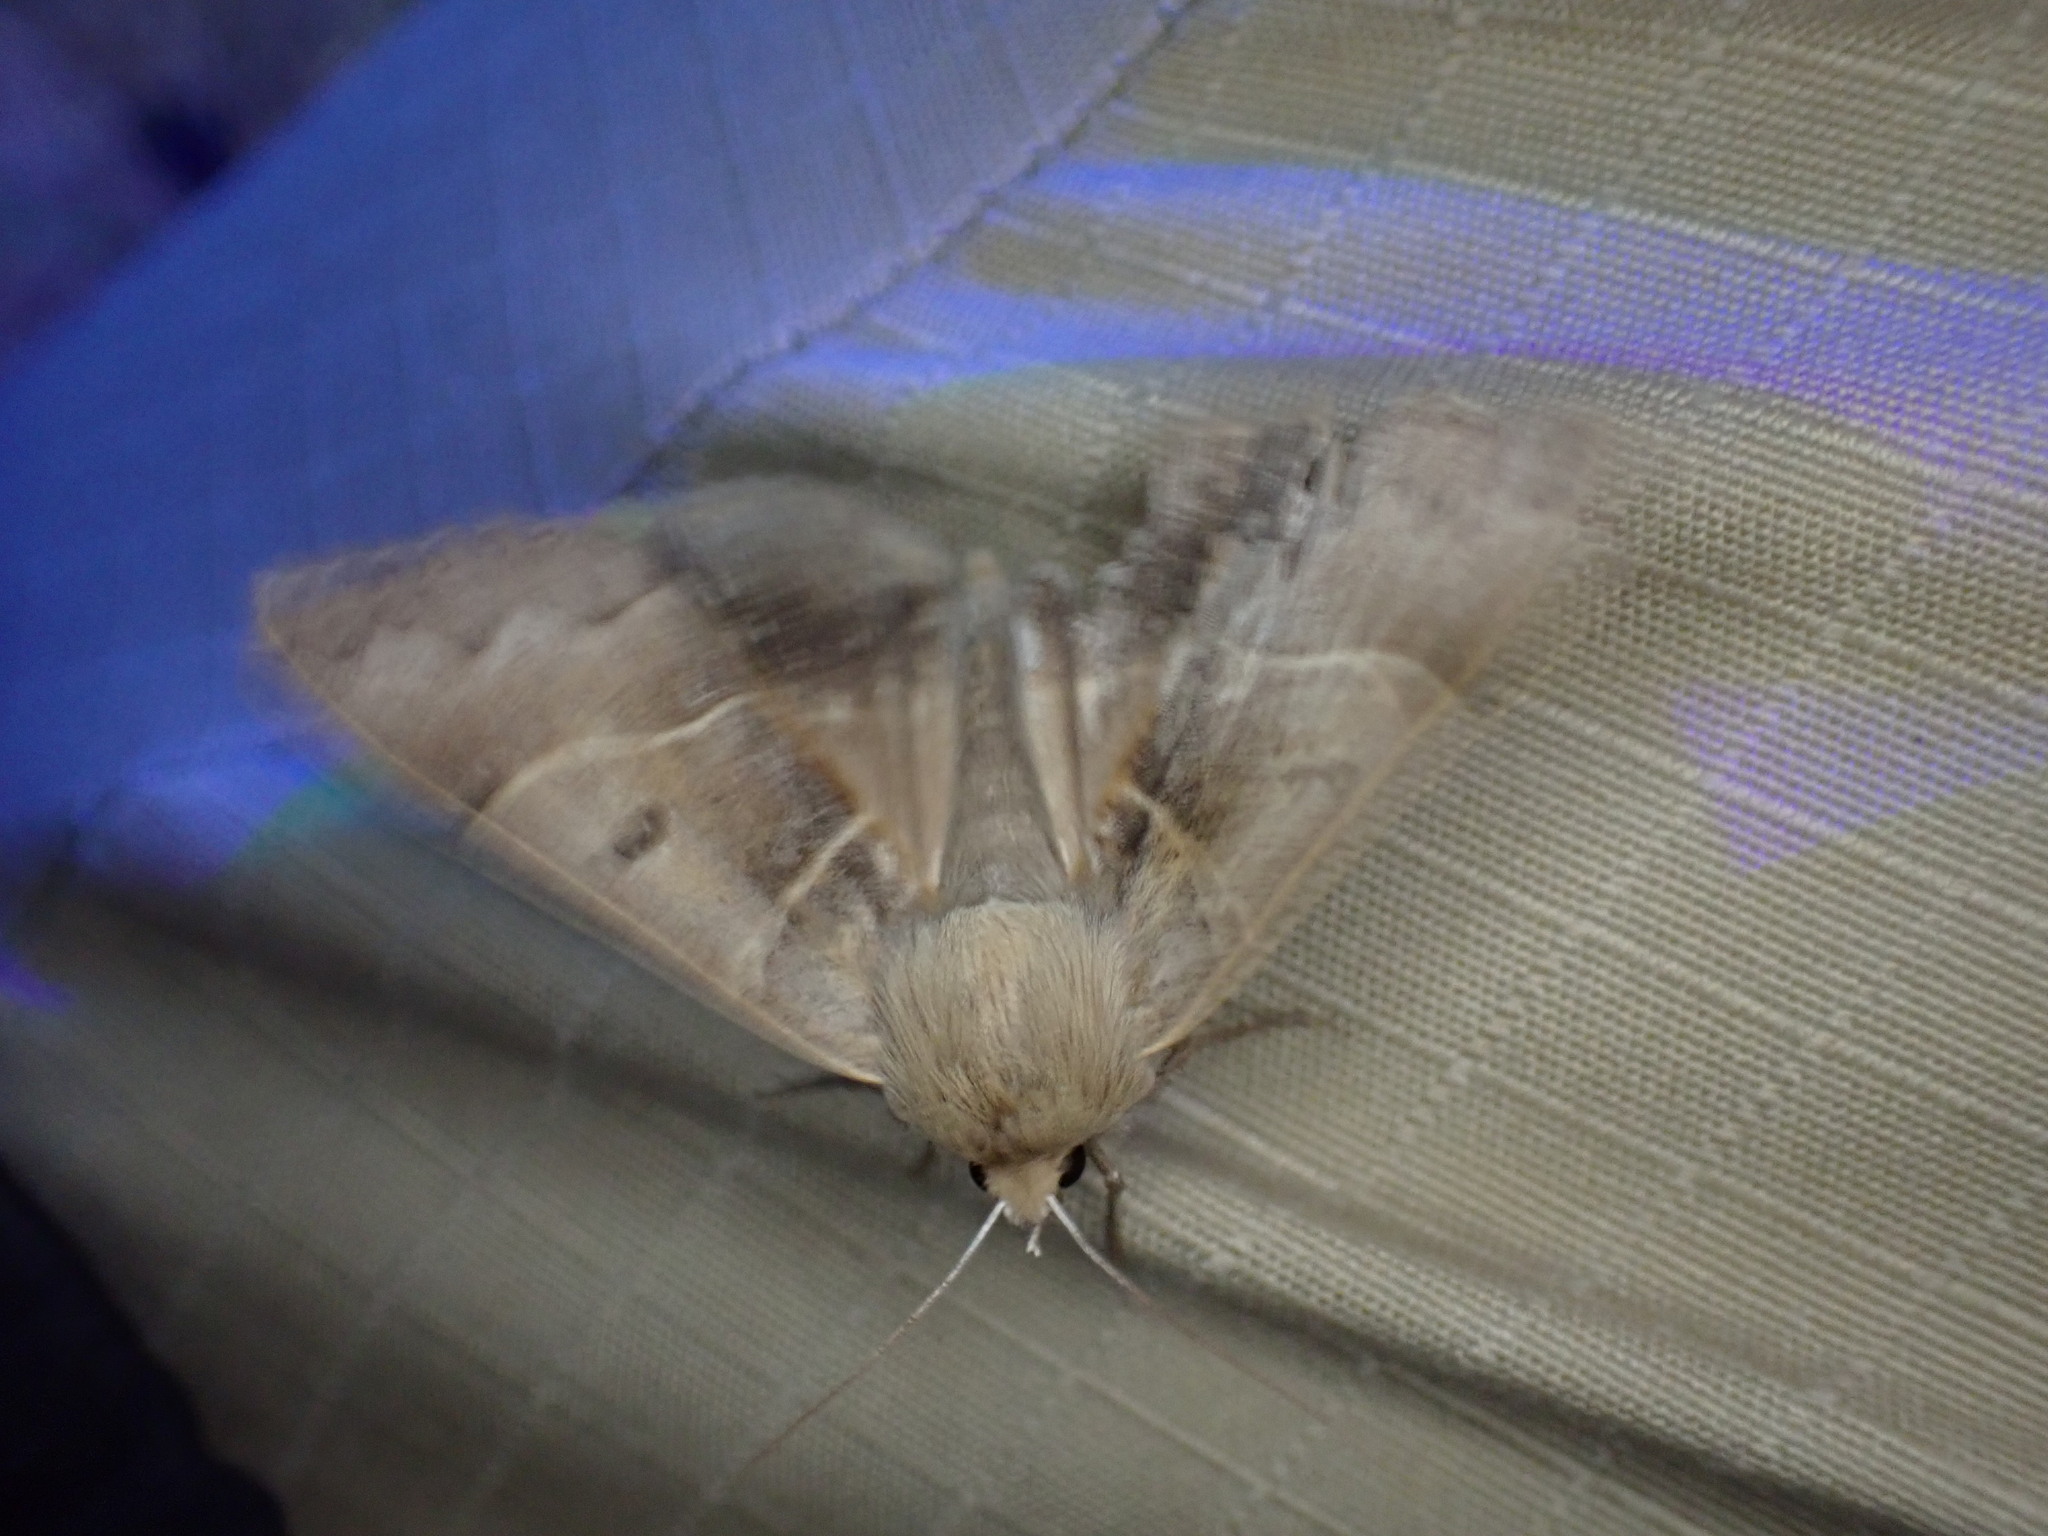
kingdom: Animalia
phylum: Arthropoda
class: Insecta
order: Lepidoptera
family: Erebidae
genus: Minucia
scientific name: Minucia lunaris
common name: Lunar double-stripe
